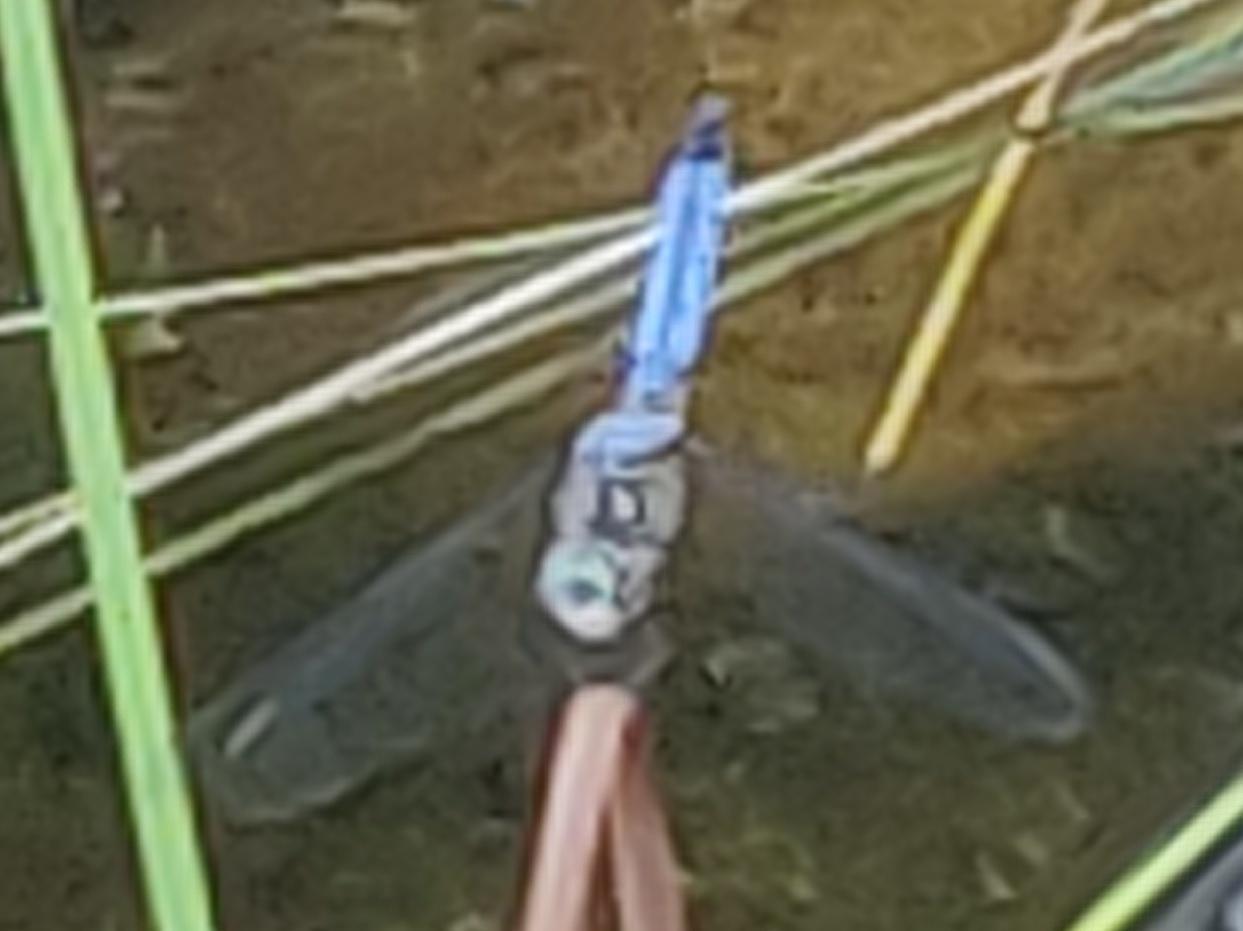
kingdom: Animalia
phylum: Arthropoda
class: Insecta
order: Odonata
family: Libellulidae
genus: Pachydiplax
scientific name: Pachydiplax longipennis
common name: Blue dasher
